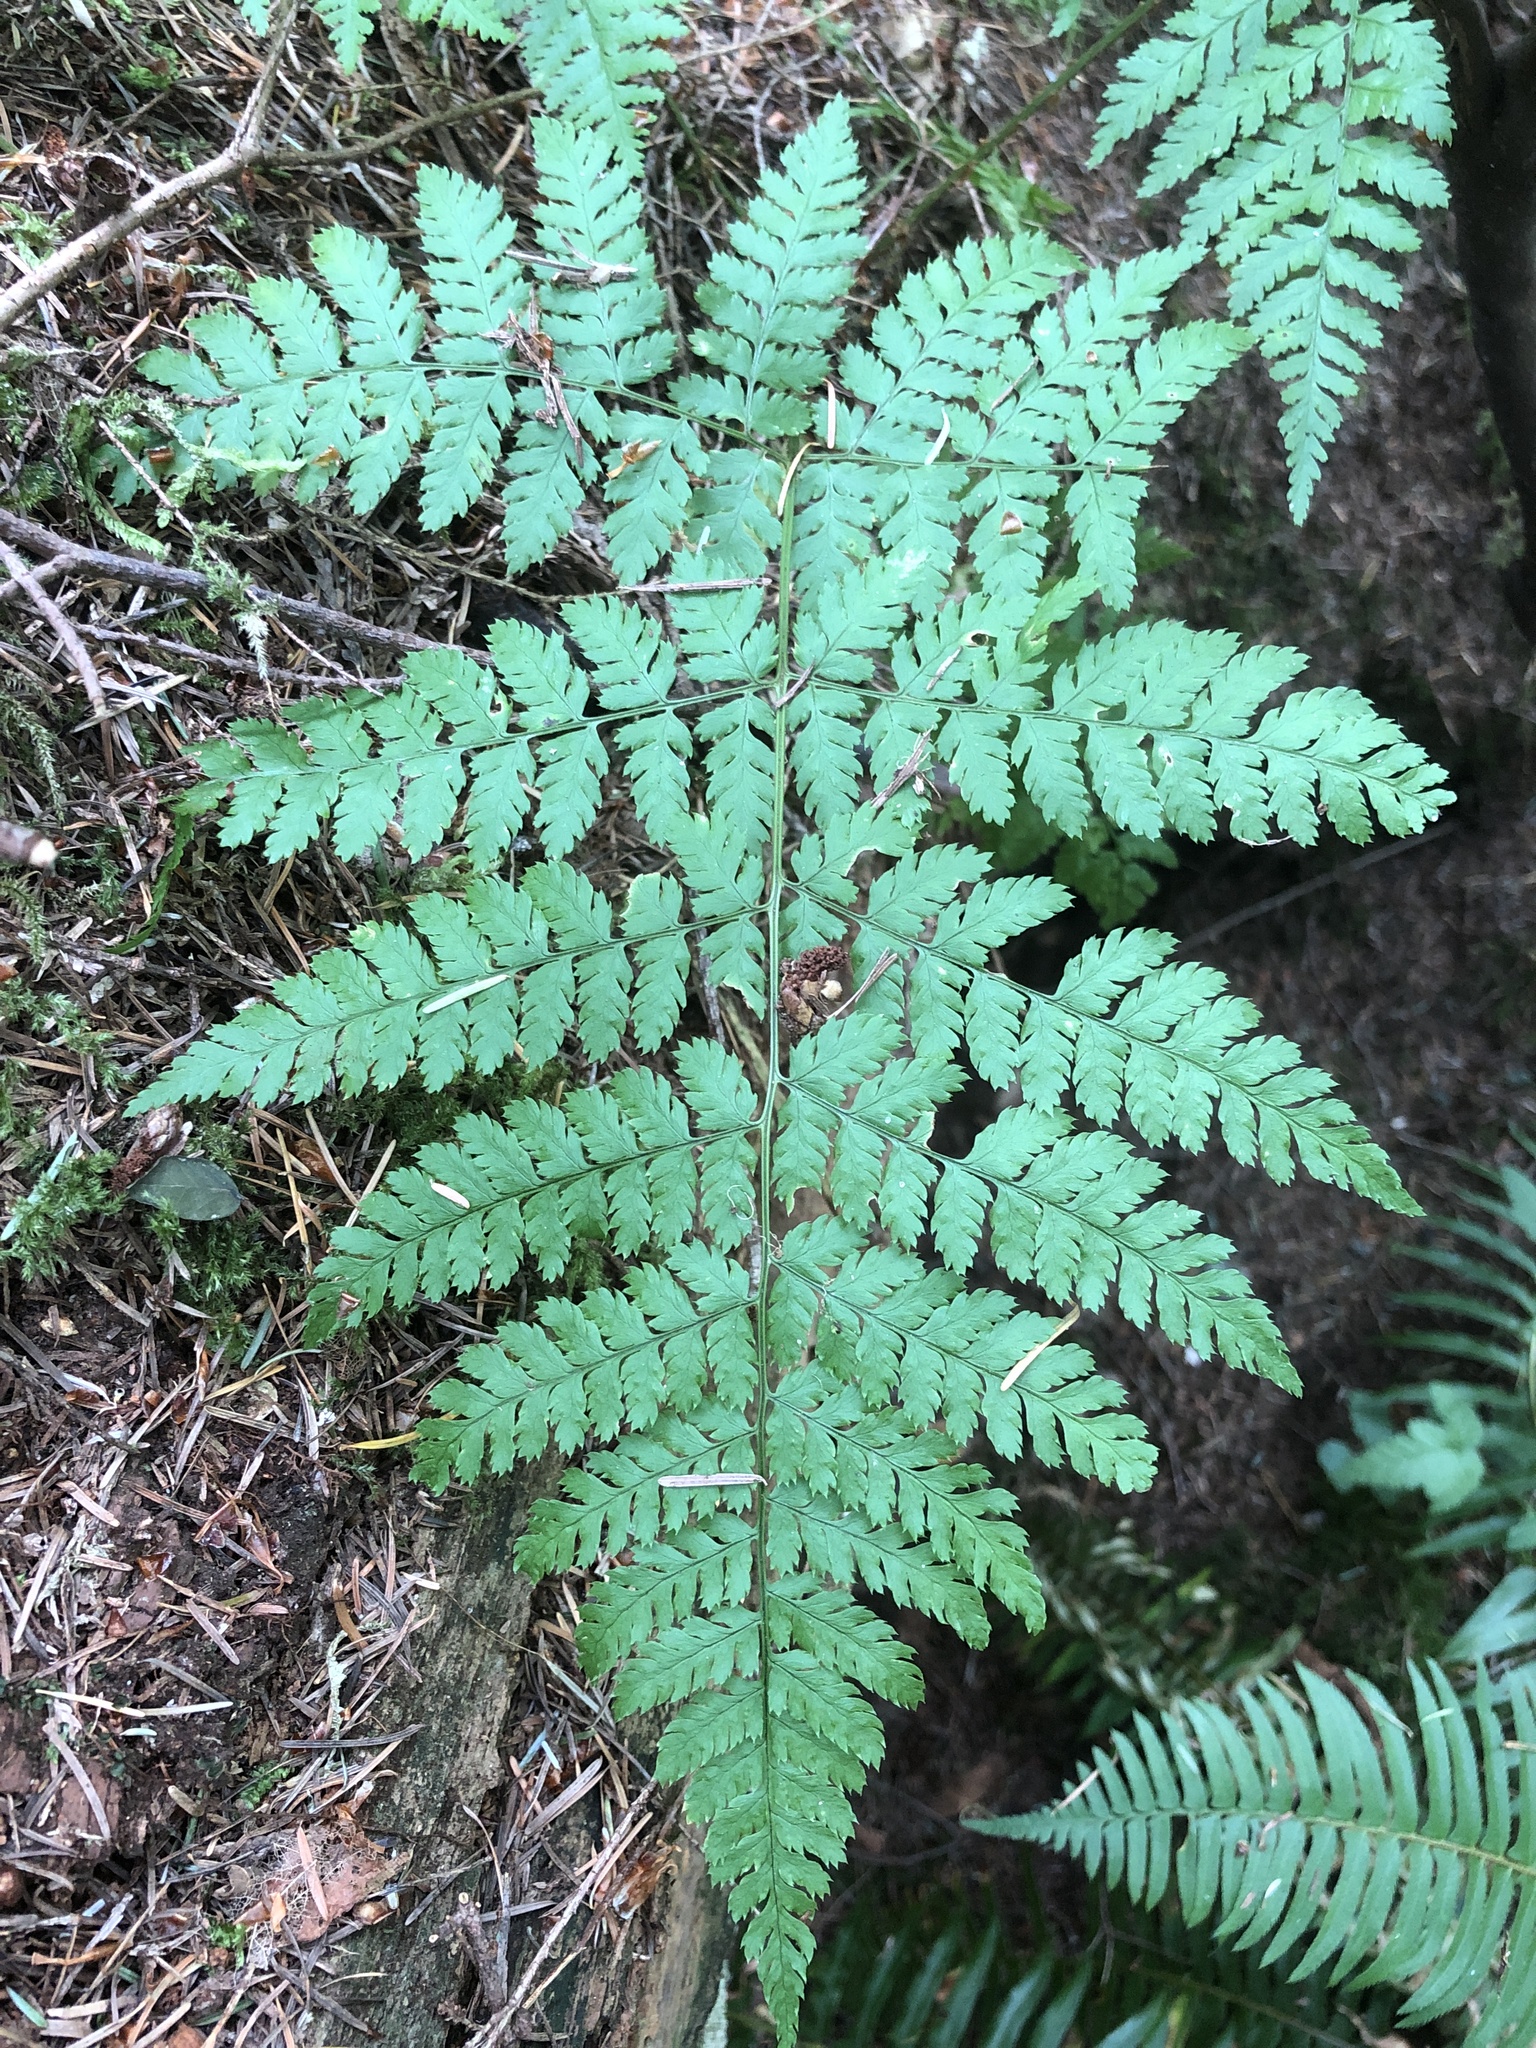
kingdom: Plantae
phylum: Tracheophyta
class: Polypodiopsida
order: Polypodiales
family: Dryopteridaceae
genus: Dryopteris
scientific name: Dryopteris expansa
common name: Northern buckler fern
